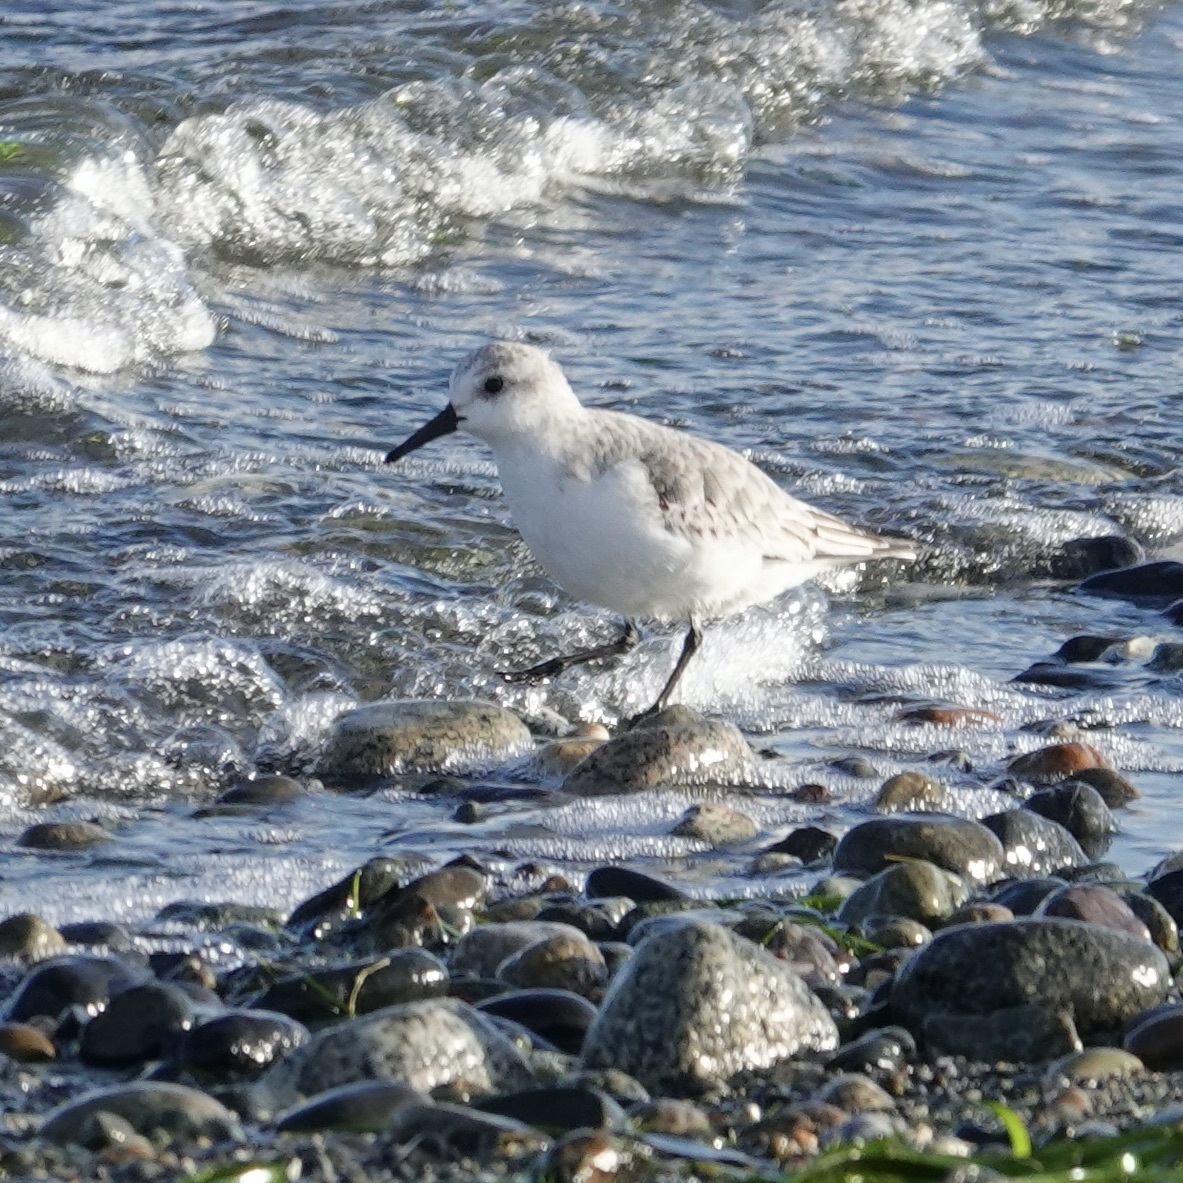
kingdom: Animalia
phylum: Chordata
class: Aves
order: Charadriiformes
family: Scolopacidae
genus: Calidris
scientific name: Calidris alba
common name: Sanderling
